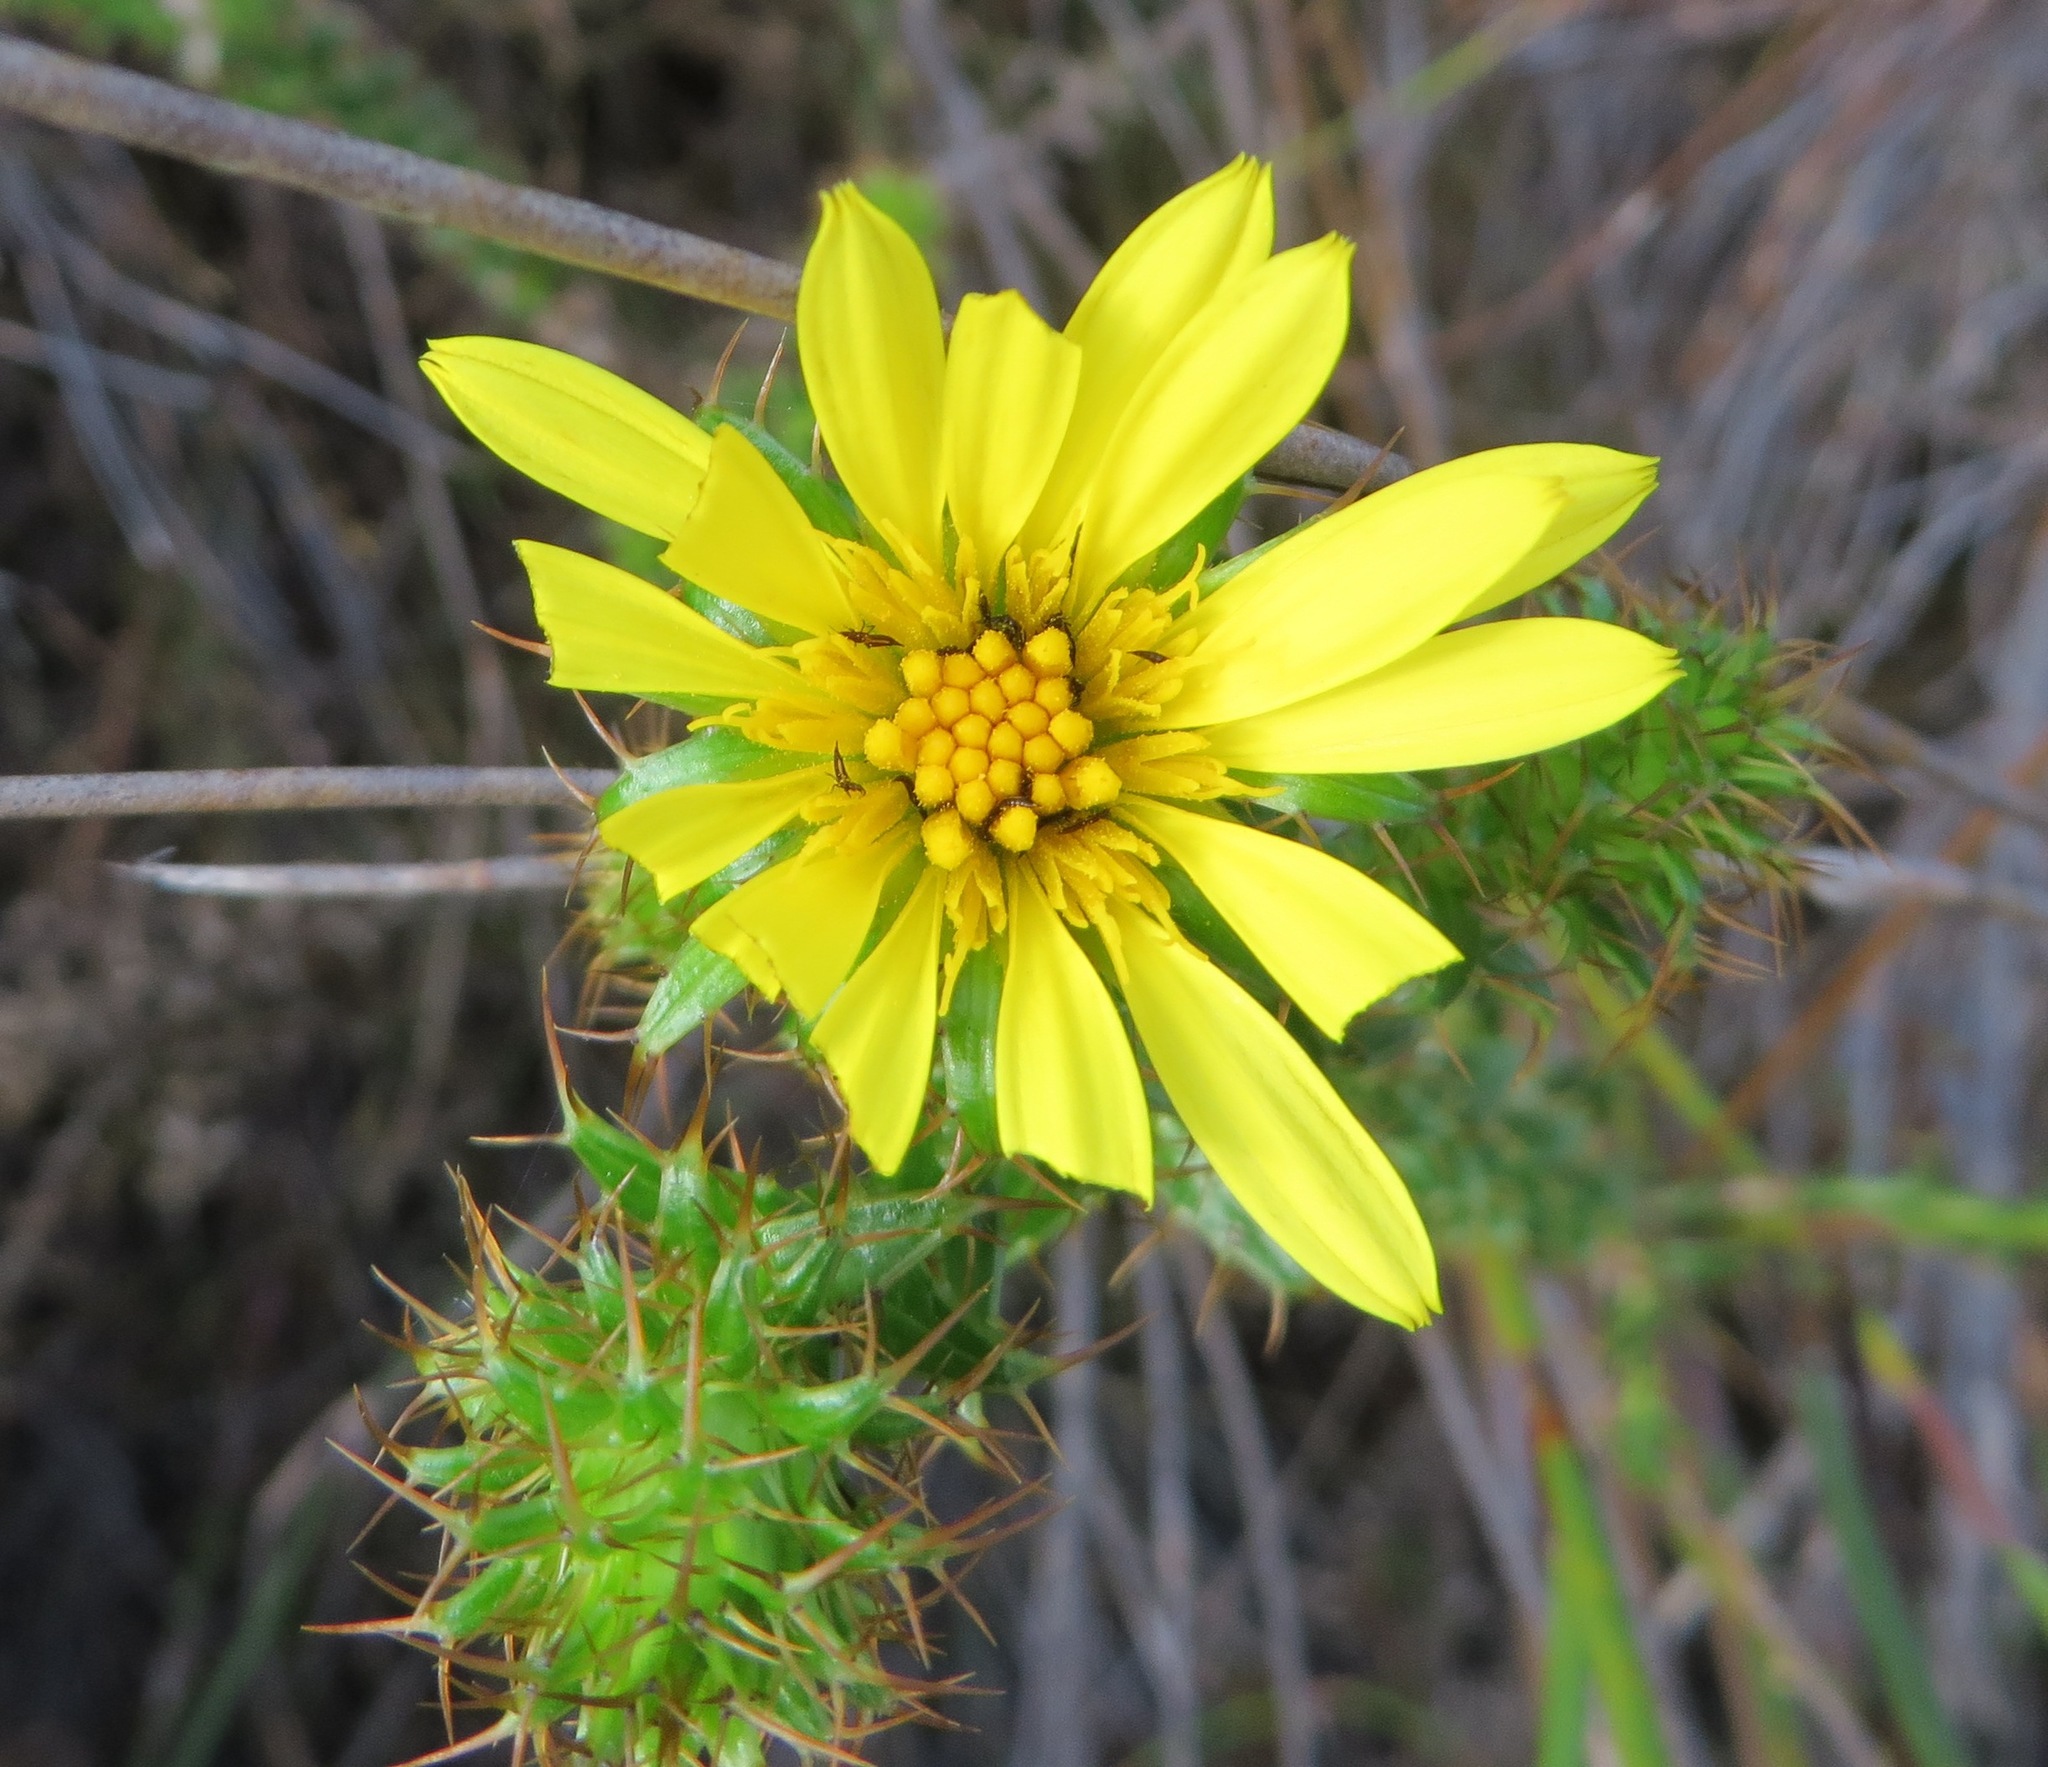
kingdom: Plantae
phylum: Tracheophyta
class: Magnoliopsida
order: Asterales
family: Asteraceae
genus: Cullumia
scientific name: Cullumia reticulata
